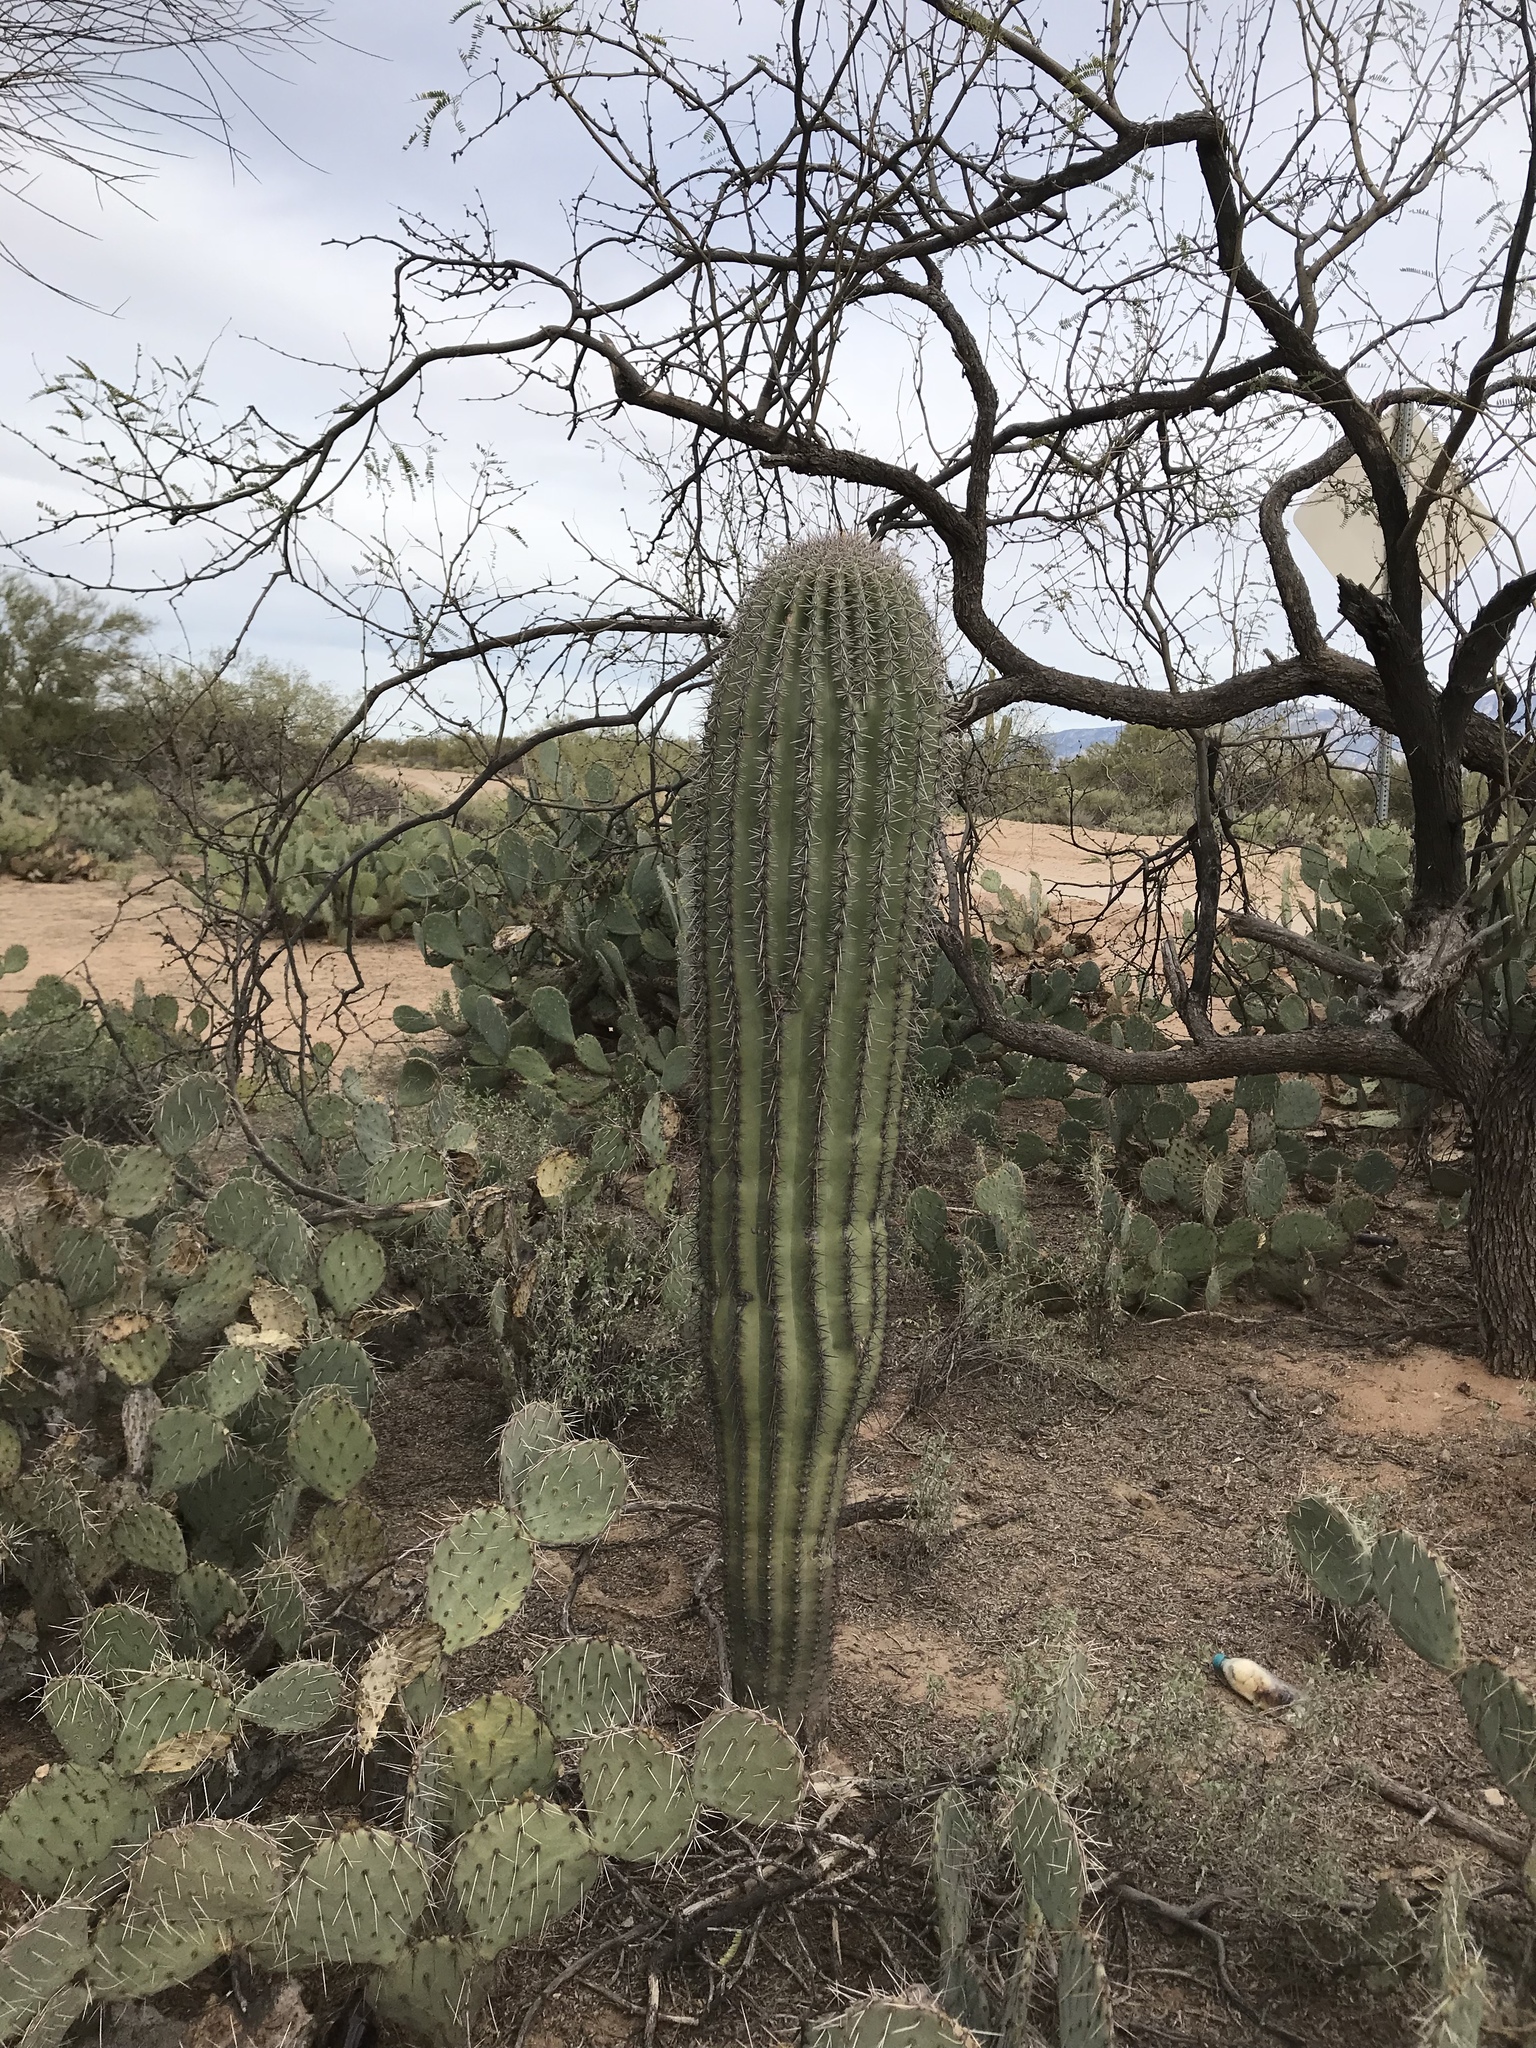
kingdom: Plantae
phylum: Tracheophyta
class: Magnoliopsida
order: Caryophyllales
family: Cactaceae
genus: Carnegiea
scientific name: Carnegiea gigantea
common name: Saguaro
